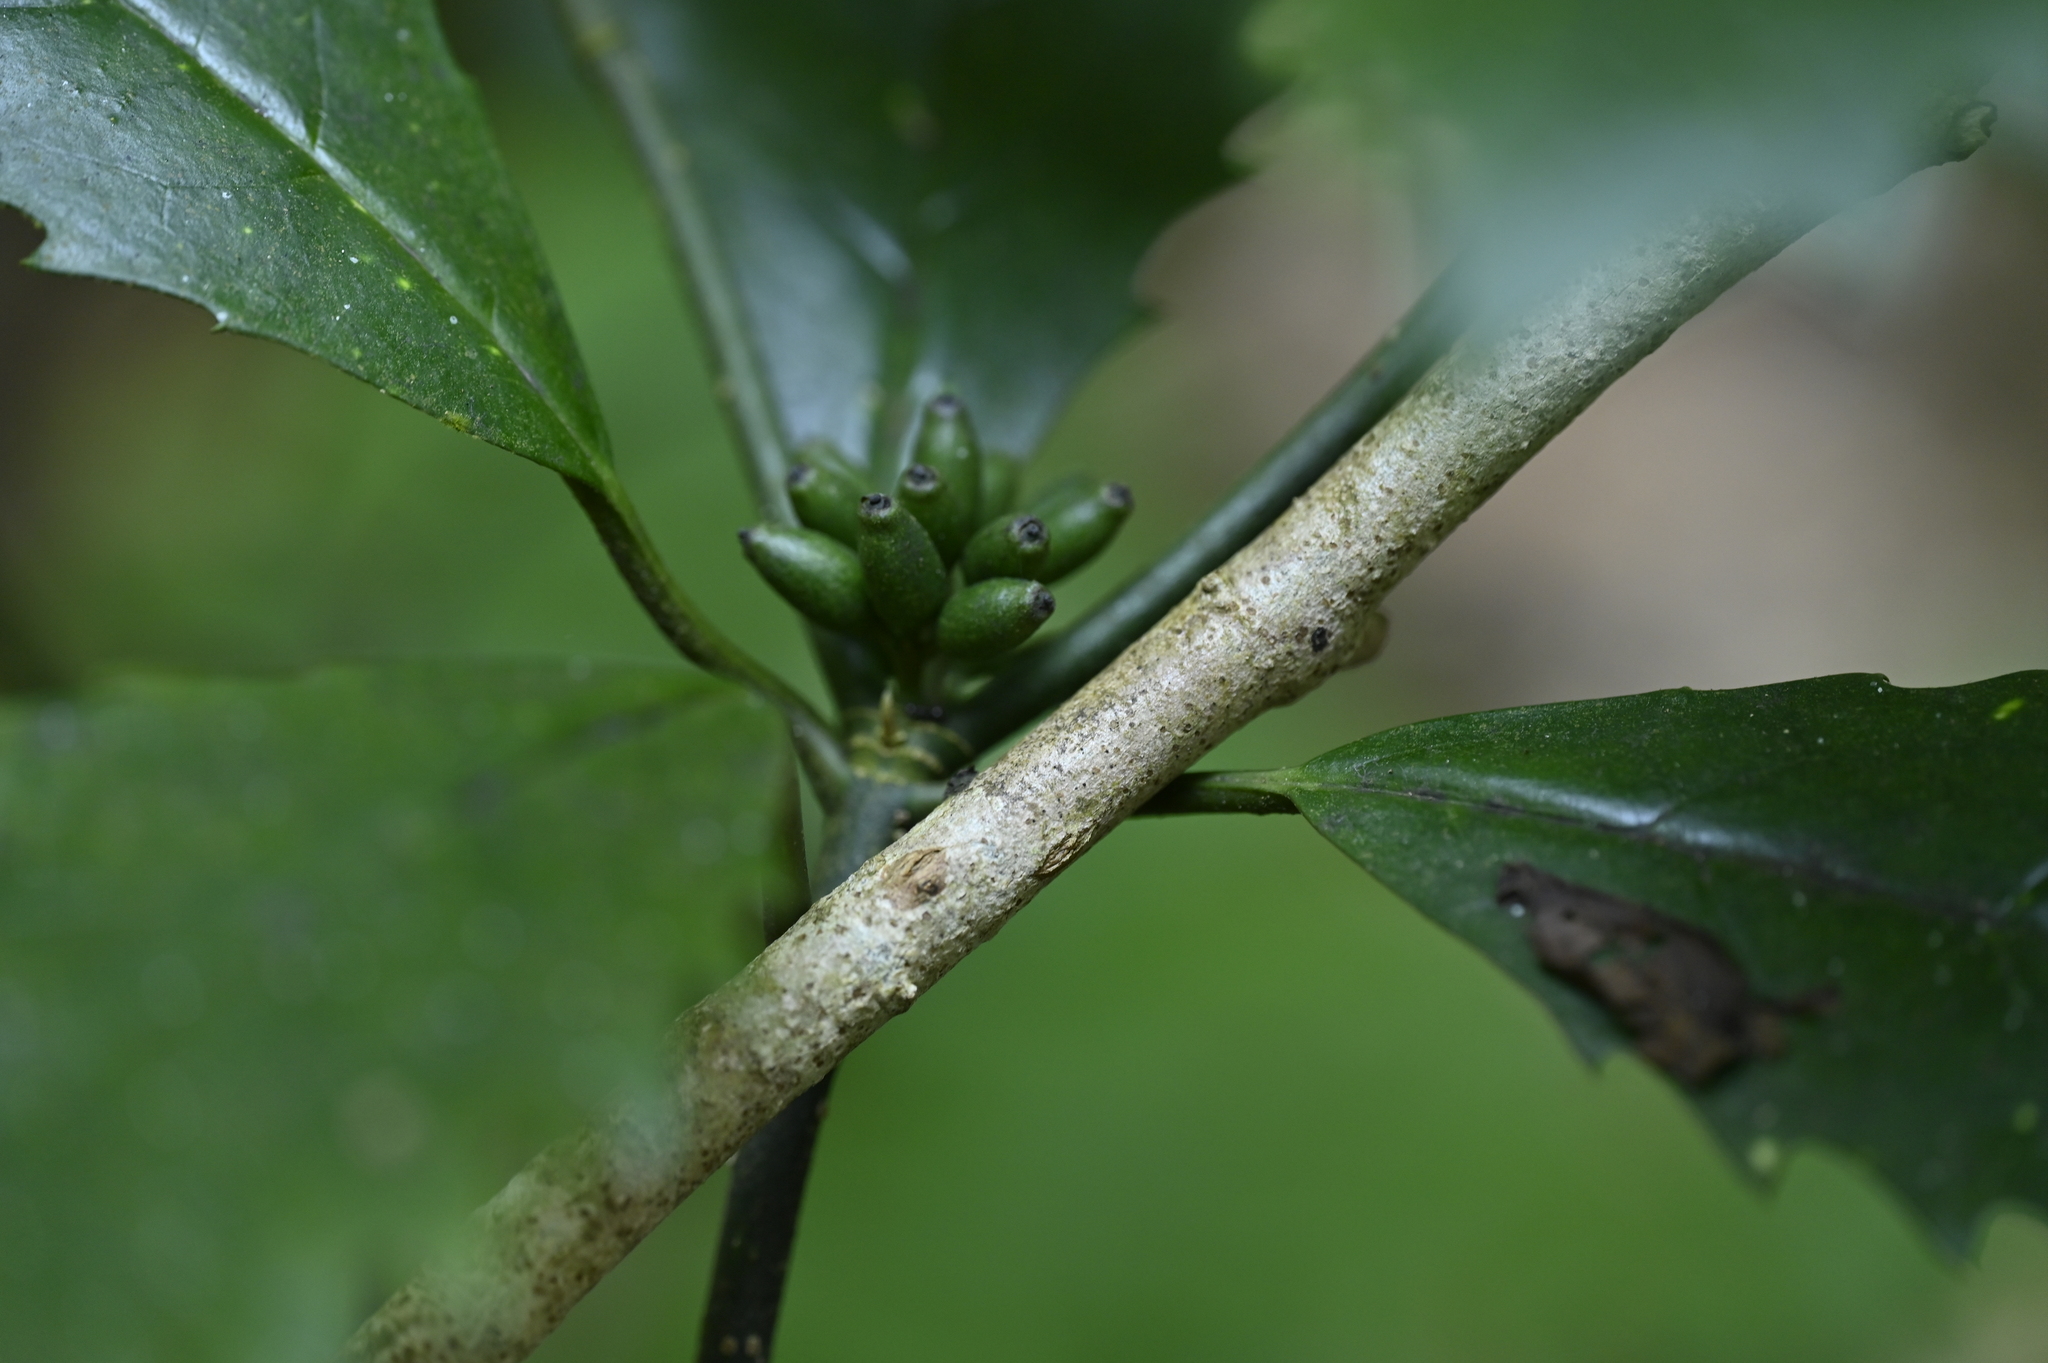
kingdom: Plantae
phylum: Tracheophyta
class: Magnoliopsida
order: Garryales
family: Garryaceae
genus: Aucuba
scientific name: Aucuba chinensis
